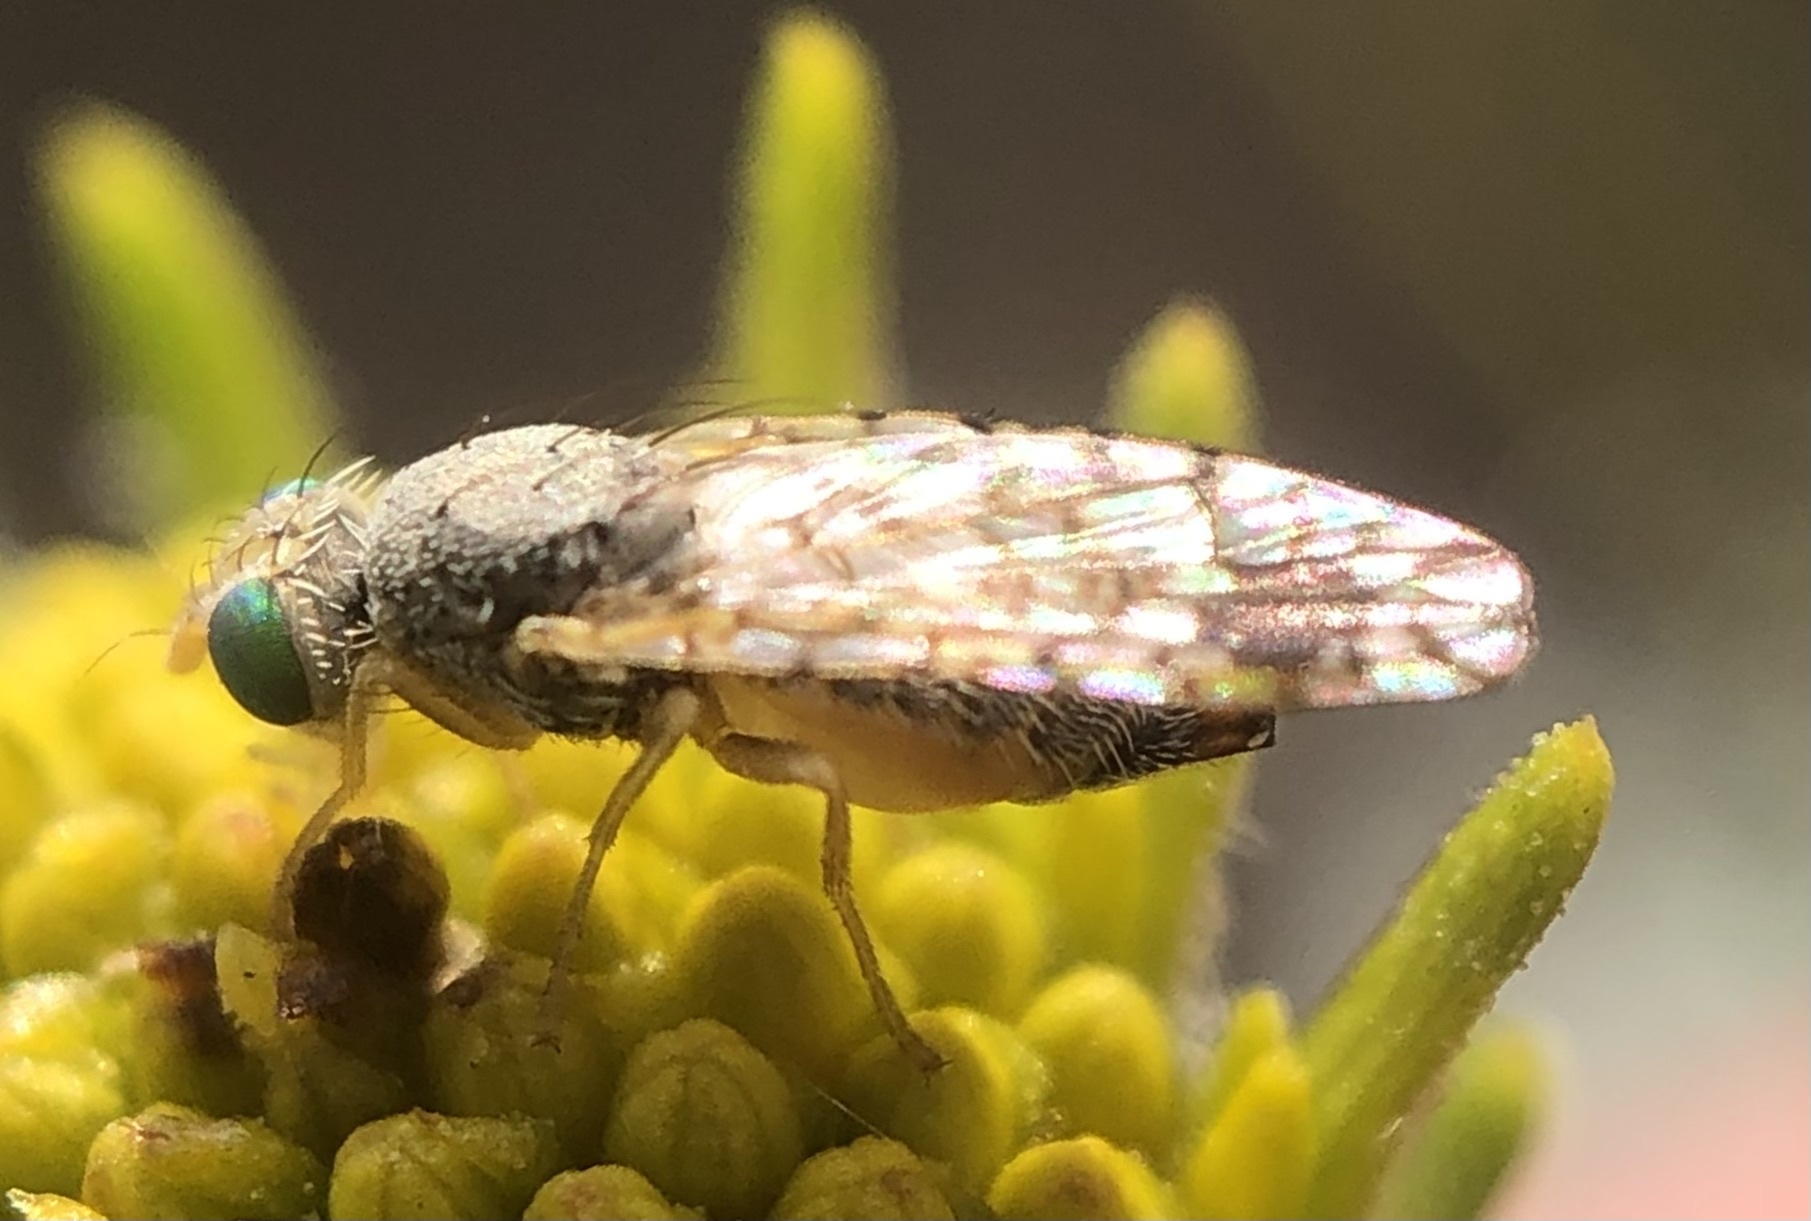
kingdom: Animalia
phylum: Arthropoda
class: Insecta
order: Diptera
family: Tephritidae
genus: Euarestoides
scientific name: Euarestoides acutangulus
